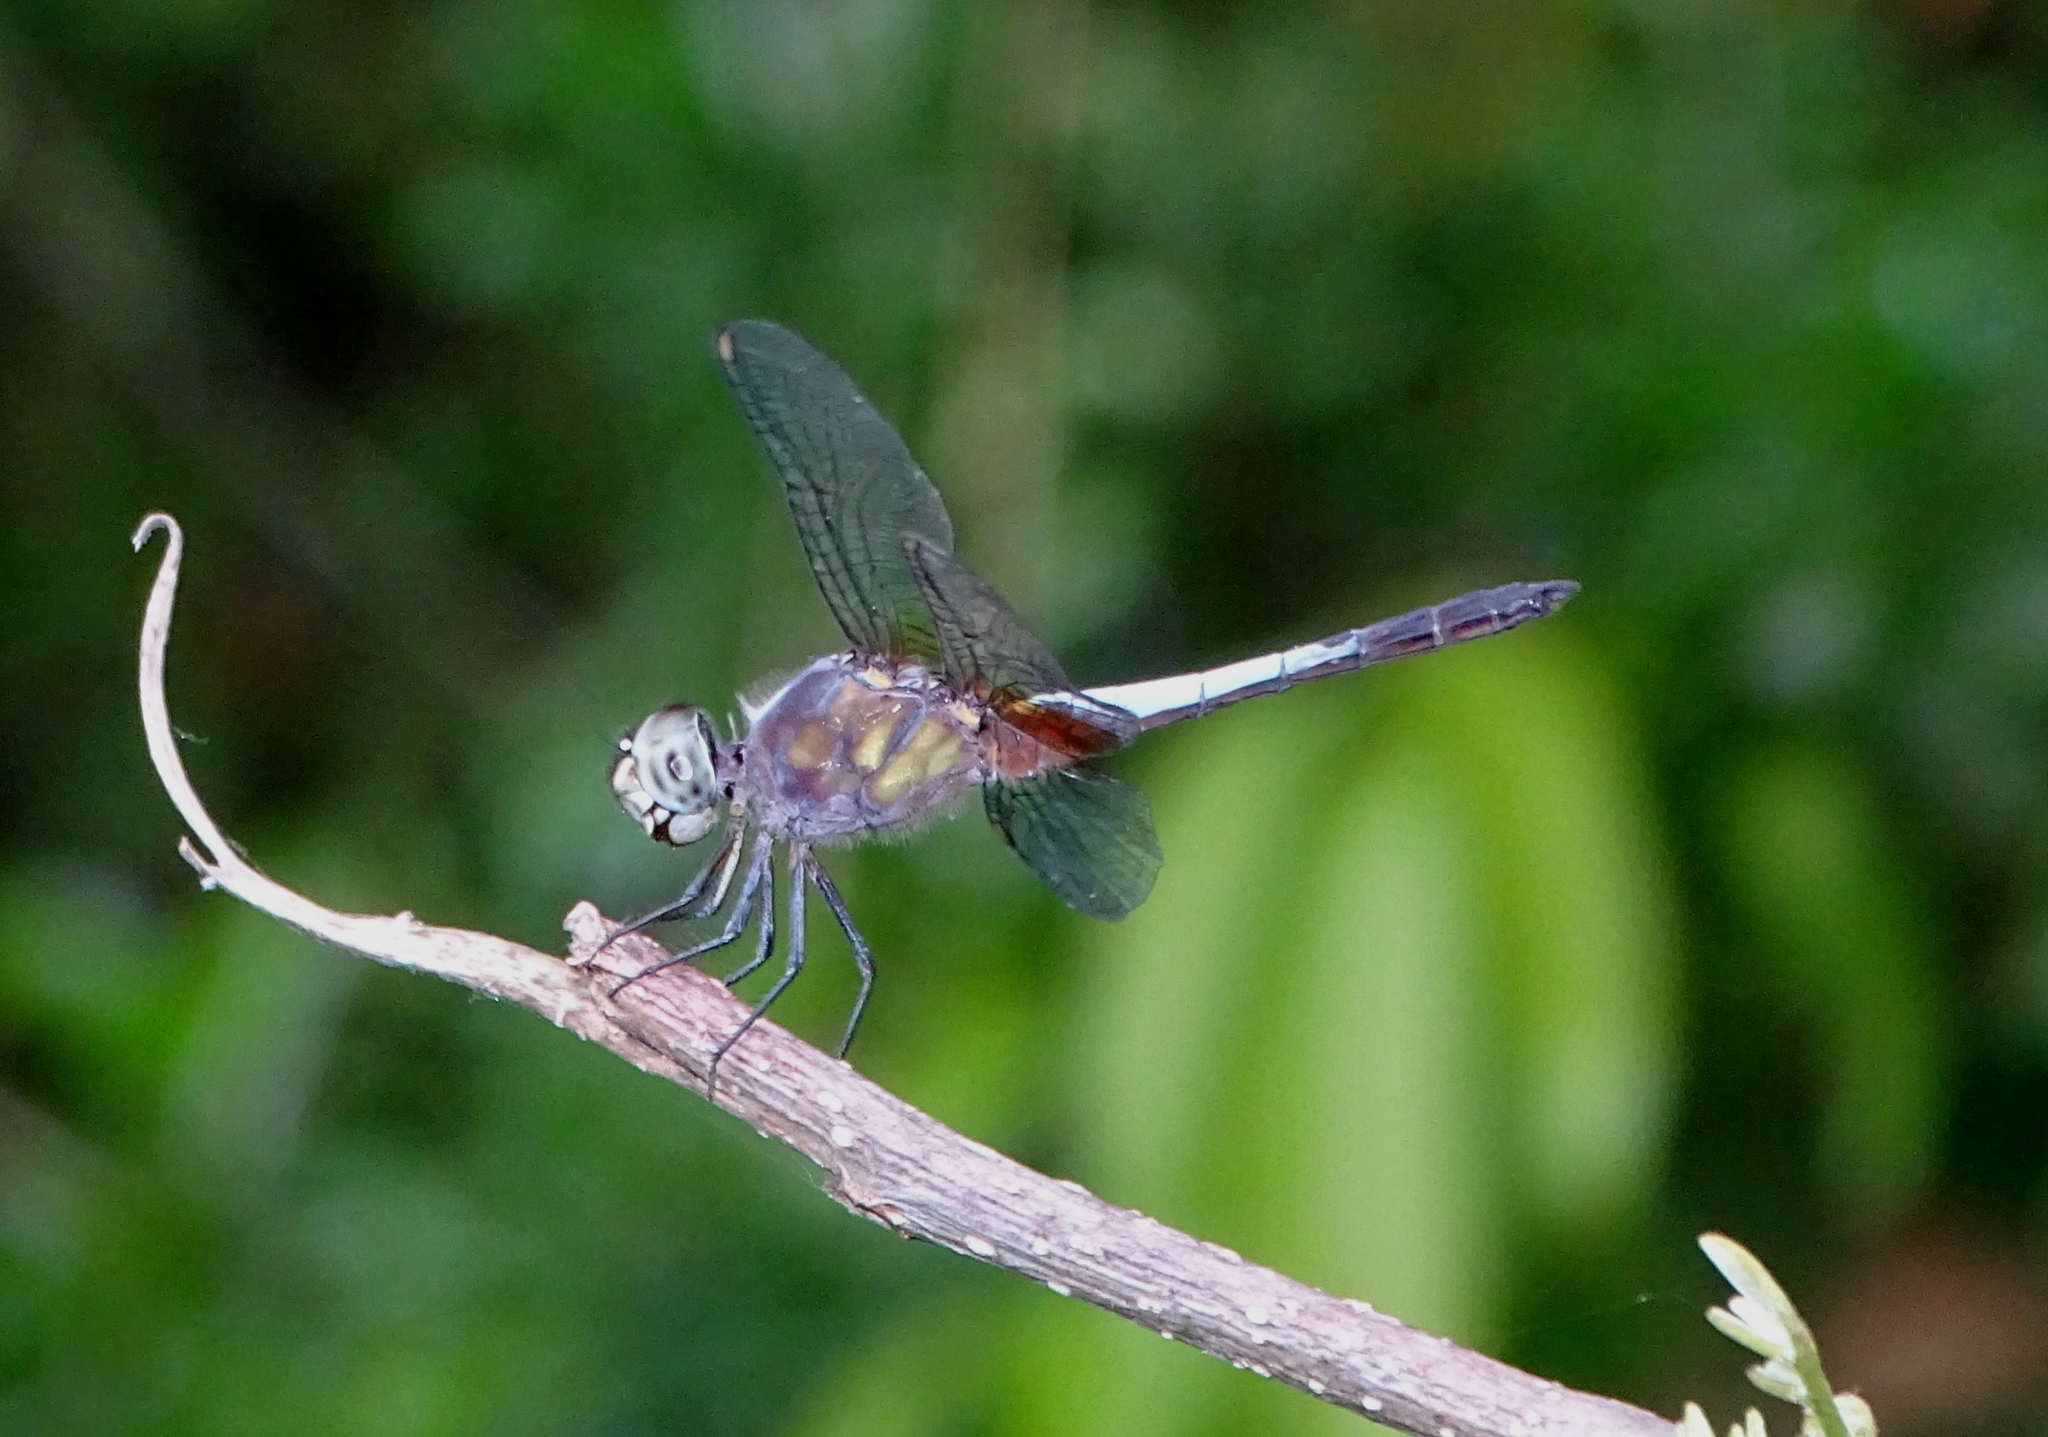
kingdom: Animalia
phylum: Arthropoda
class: Insecta
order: Odonata
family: Libellulidae
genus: Brachydiplax
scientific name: Brachydiplax chalybea
